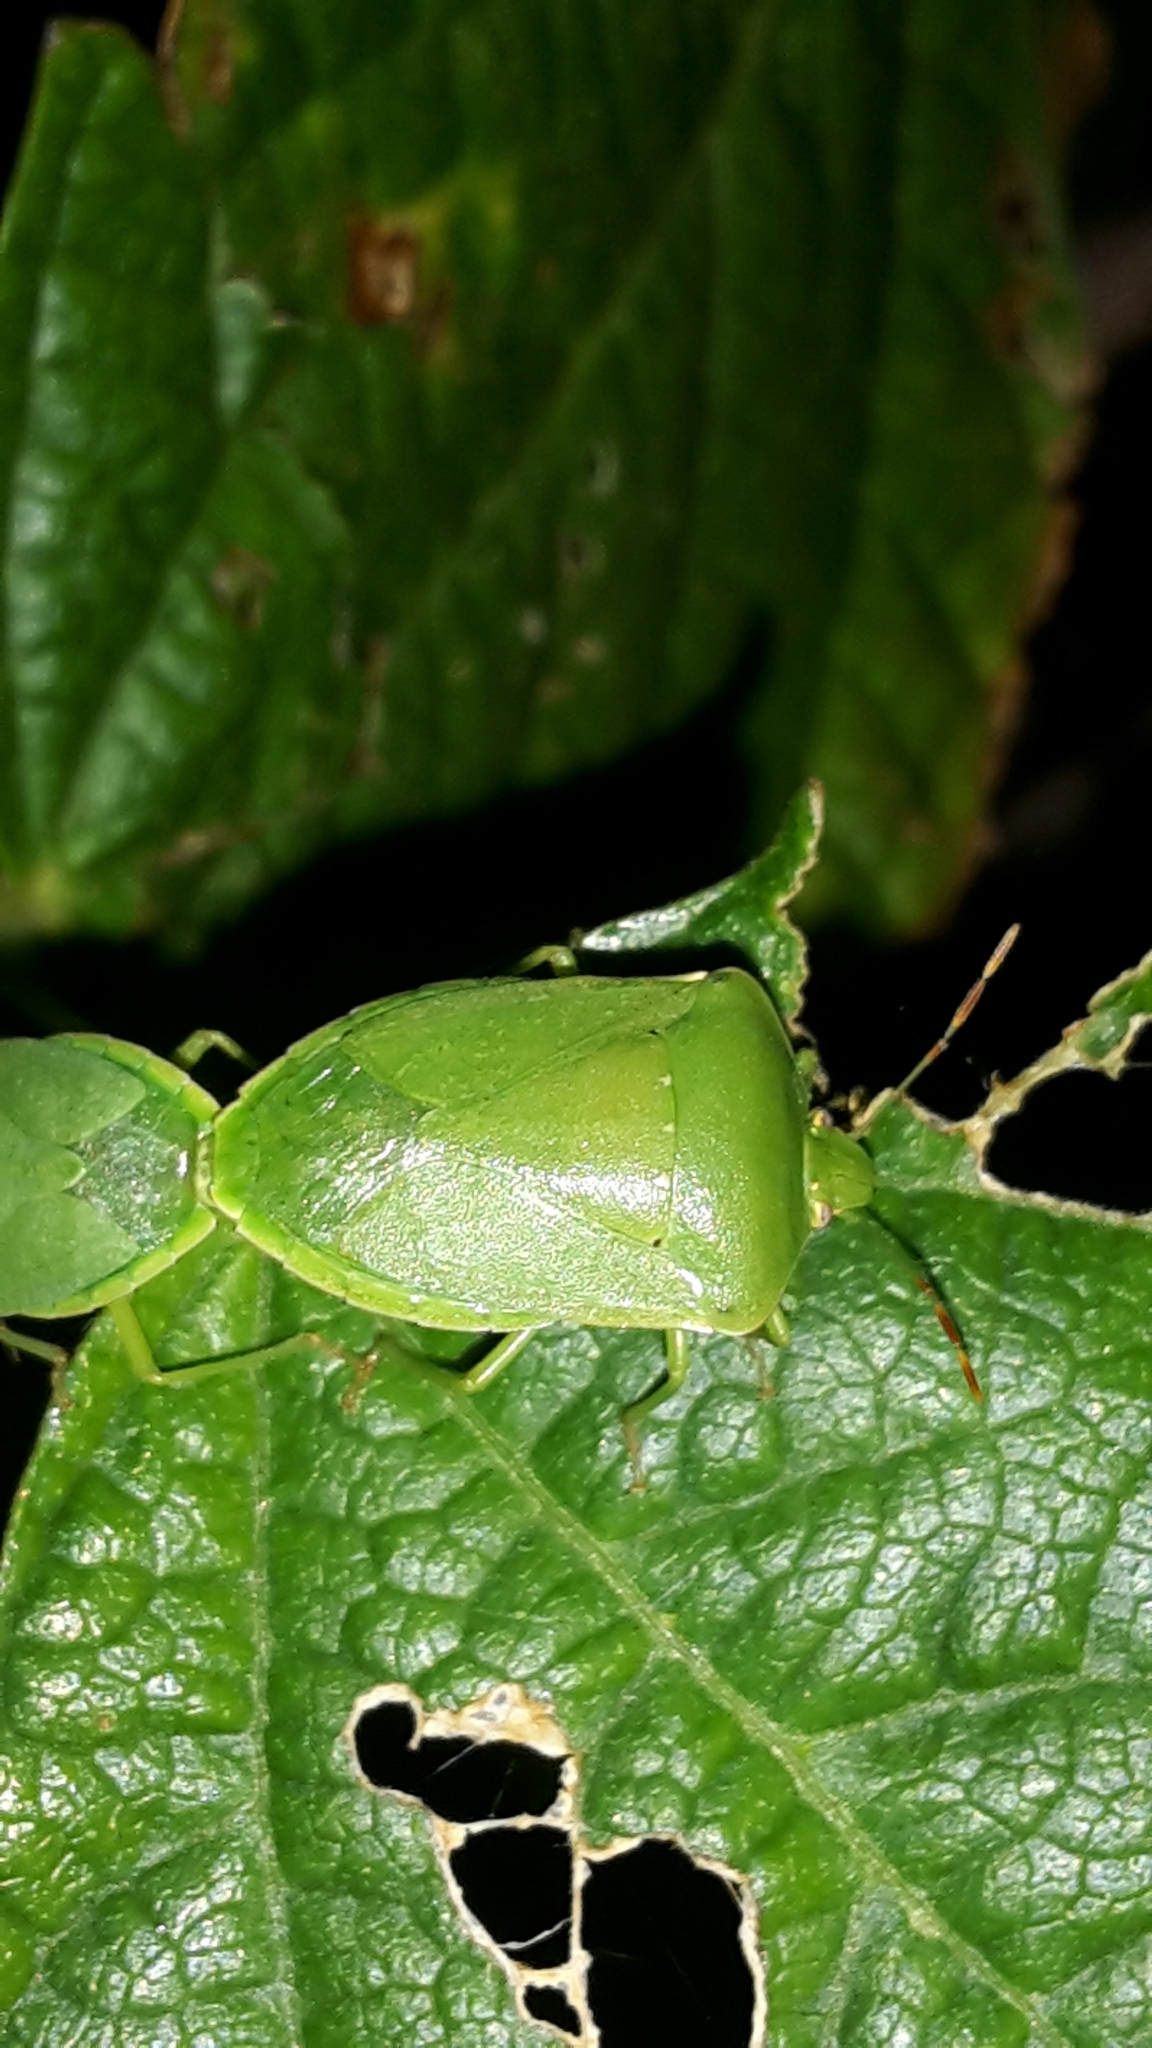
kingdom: Animalia
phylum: Arthropoda
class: Insecta
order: Hemiptera
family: Pentatomidae
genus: Nezara
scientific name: Nezara viridula
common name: Southern green stink bug
